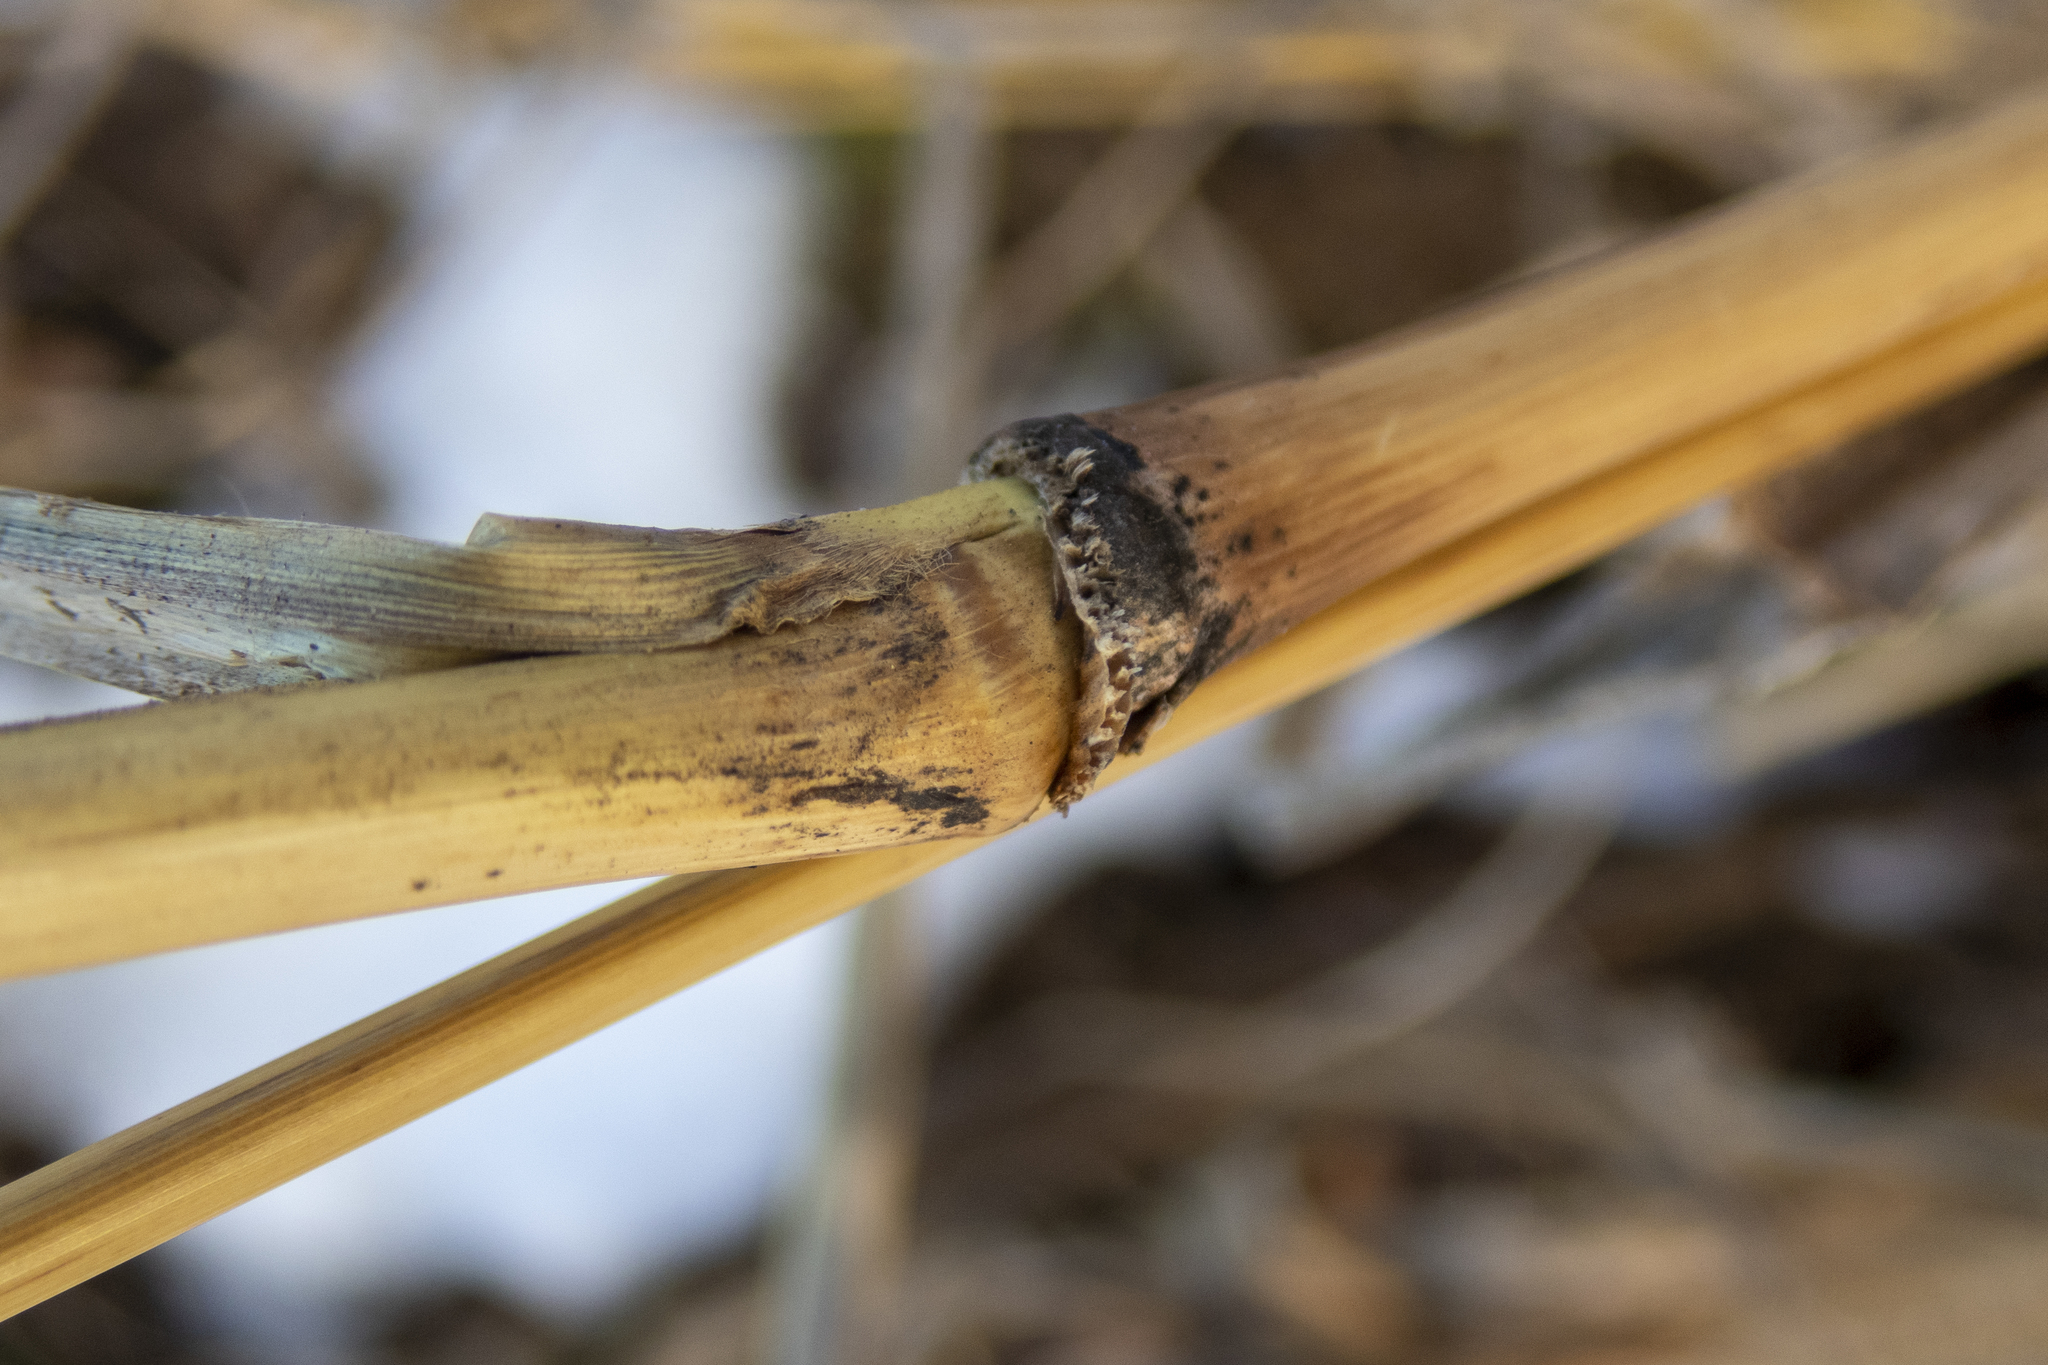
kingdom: Plantae
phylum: Tracheophyta
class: Liliopsida
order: Poales
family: Poaceae
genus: Setaria
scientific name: Setaria faberi
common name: Nodding bristle-grass
